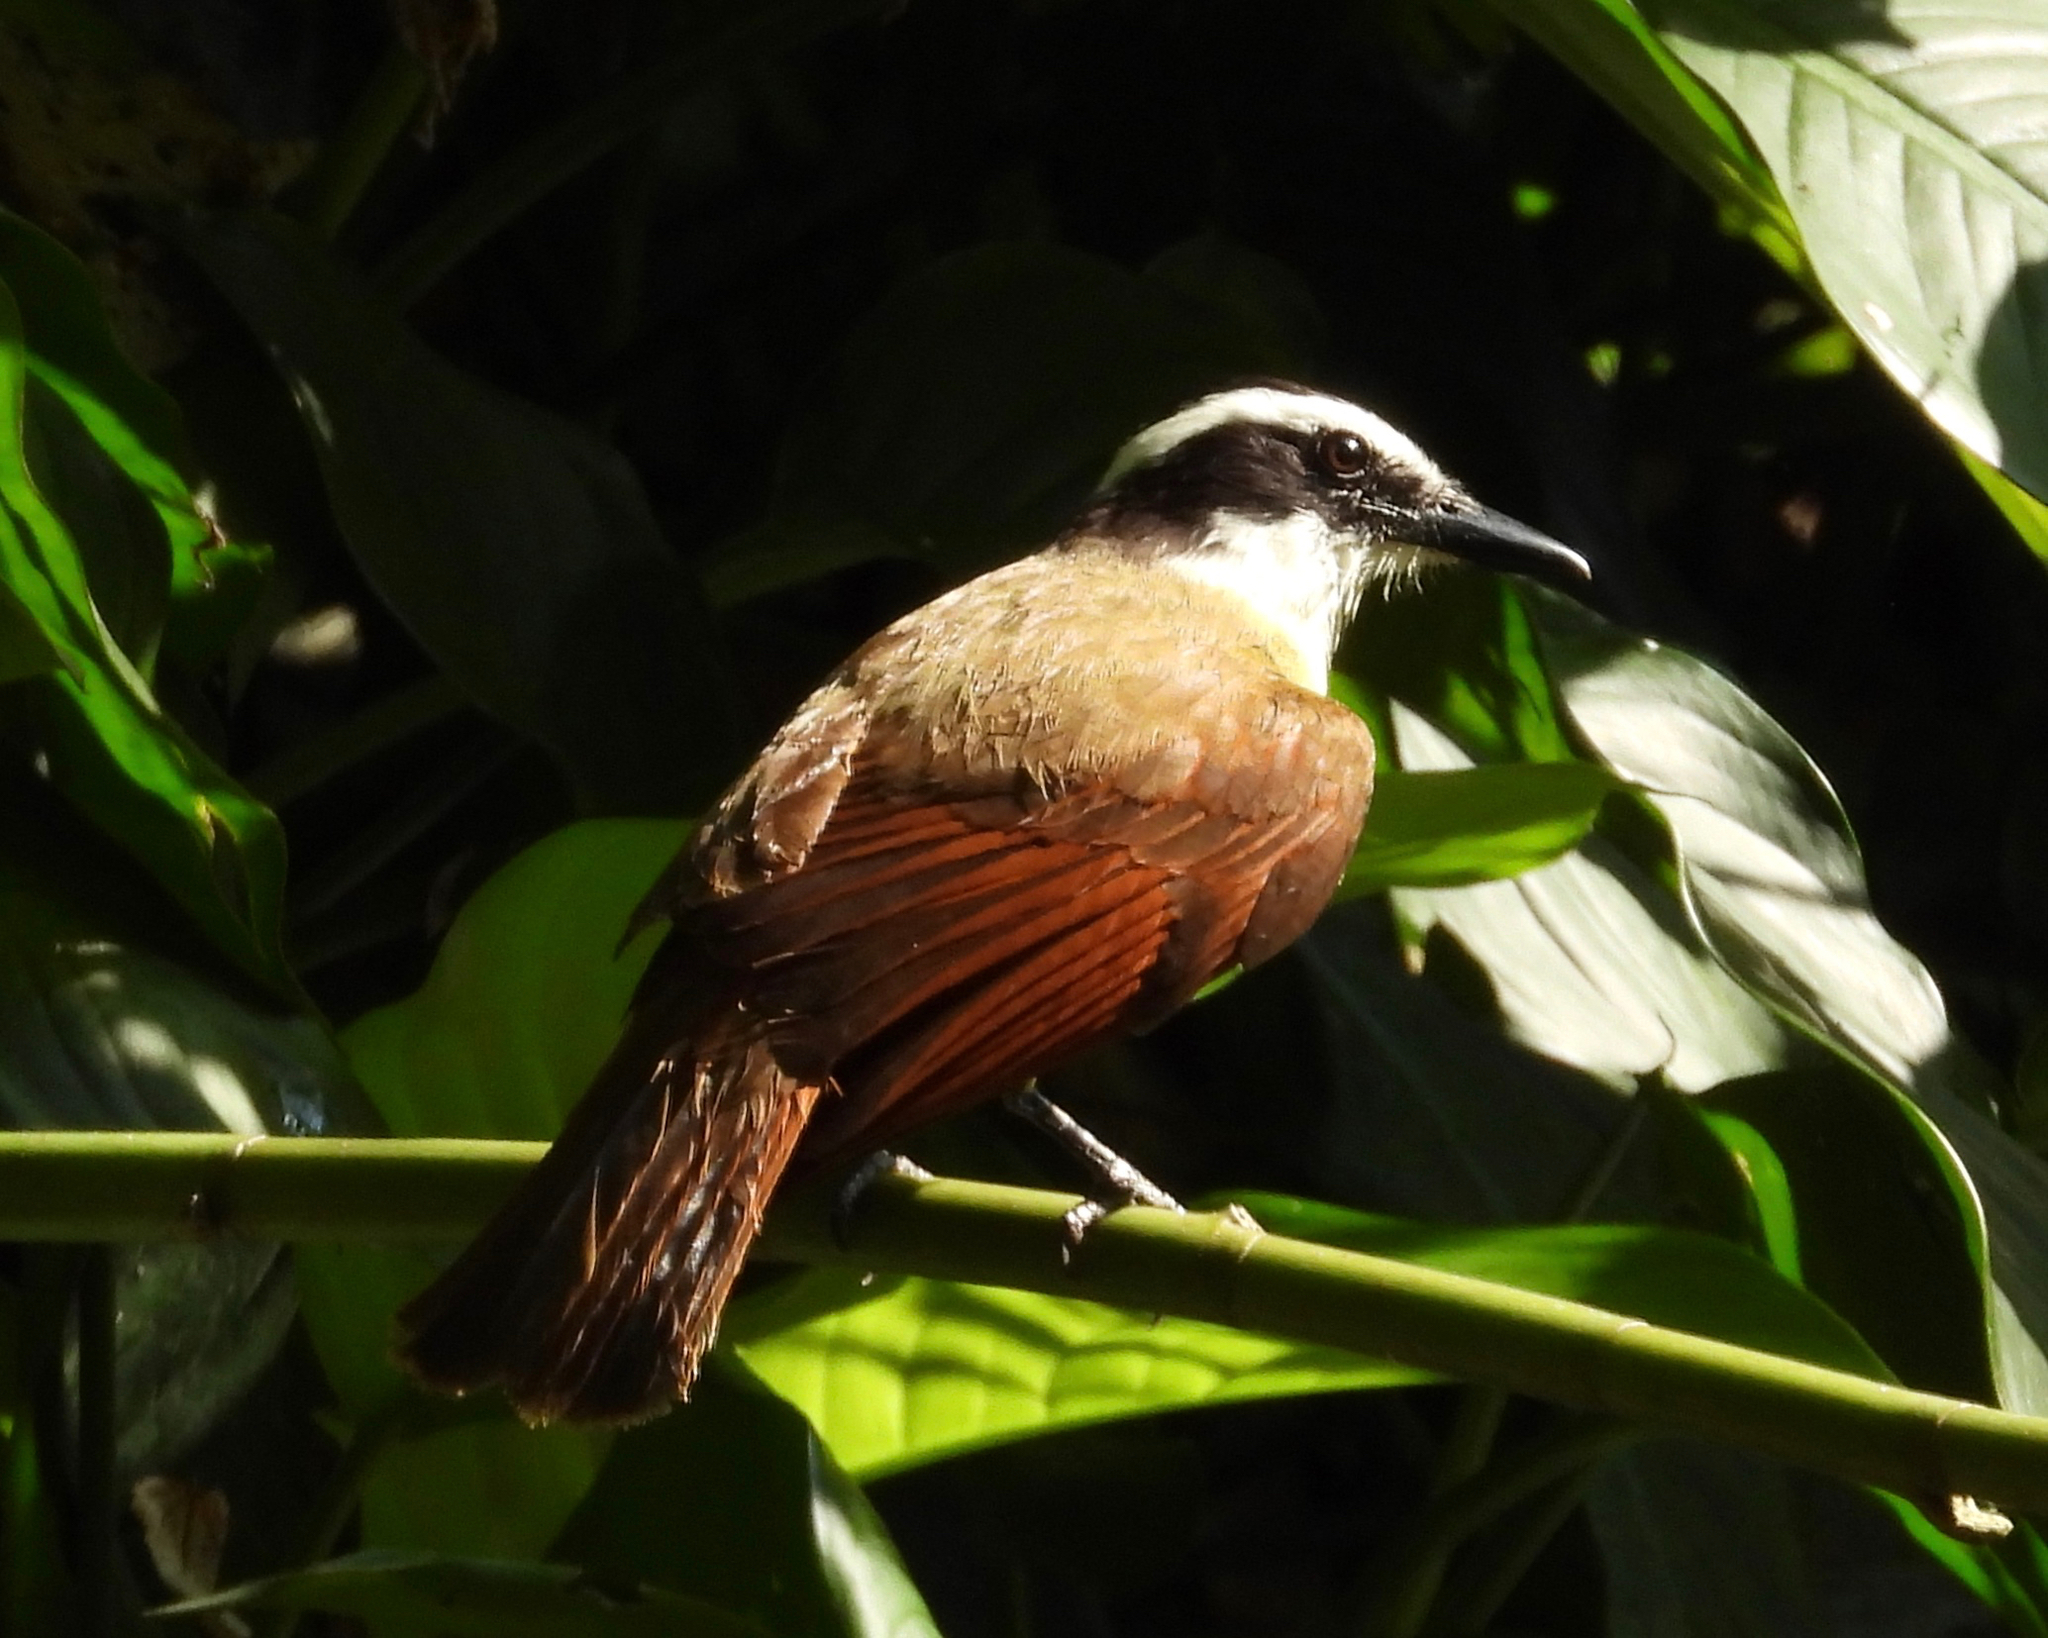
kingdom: Animalia
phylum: Chordata
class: Aves
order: Passeriformes
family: Tyrannidae
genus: Pitangus
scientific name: Pitangus sulphuratus
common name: Great kiskadee
